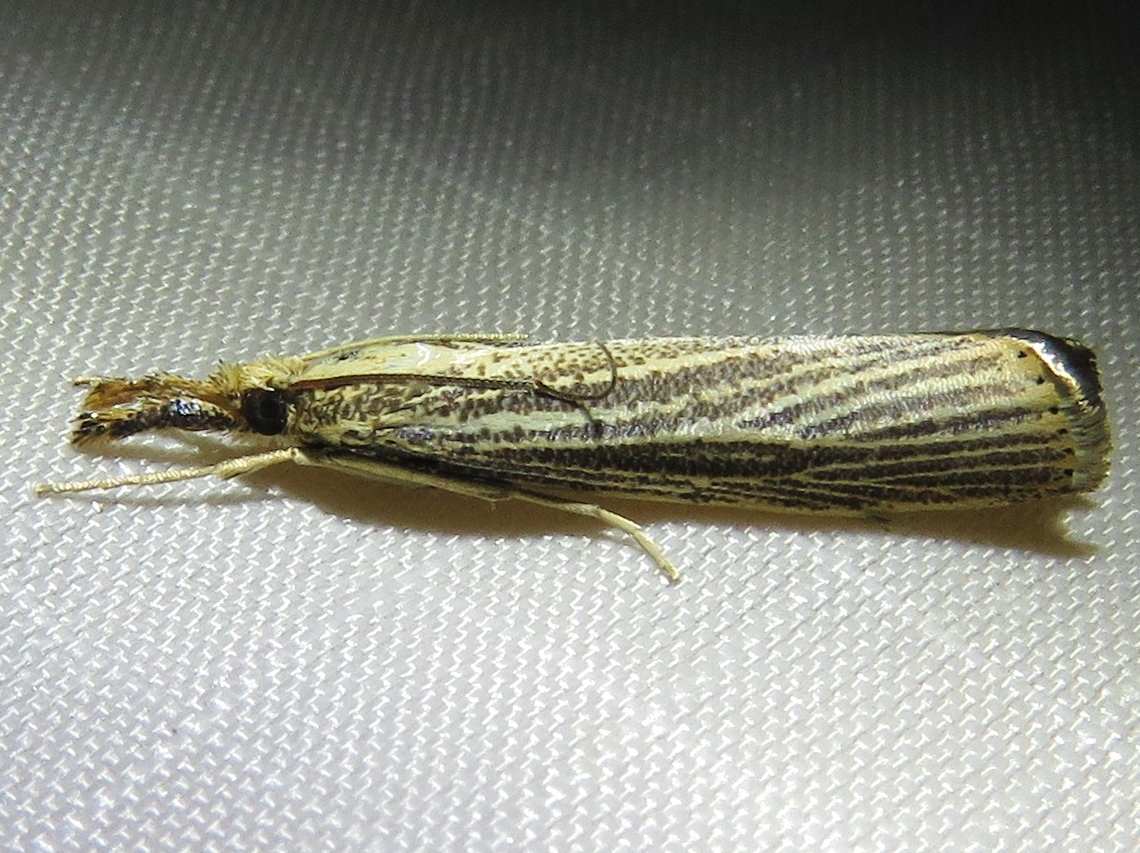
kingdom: Animalia
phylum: Arthropoda
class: Insecta
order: Lepidoptera
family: Crambidae
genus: Agriphila
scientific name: Agriphila vulgivagellus
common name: Vagabond crambus moth
